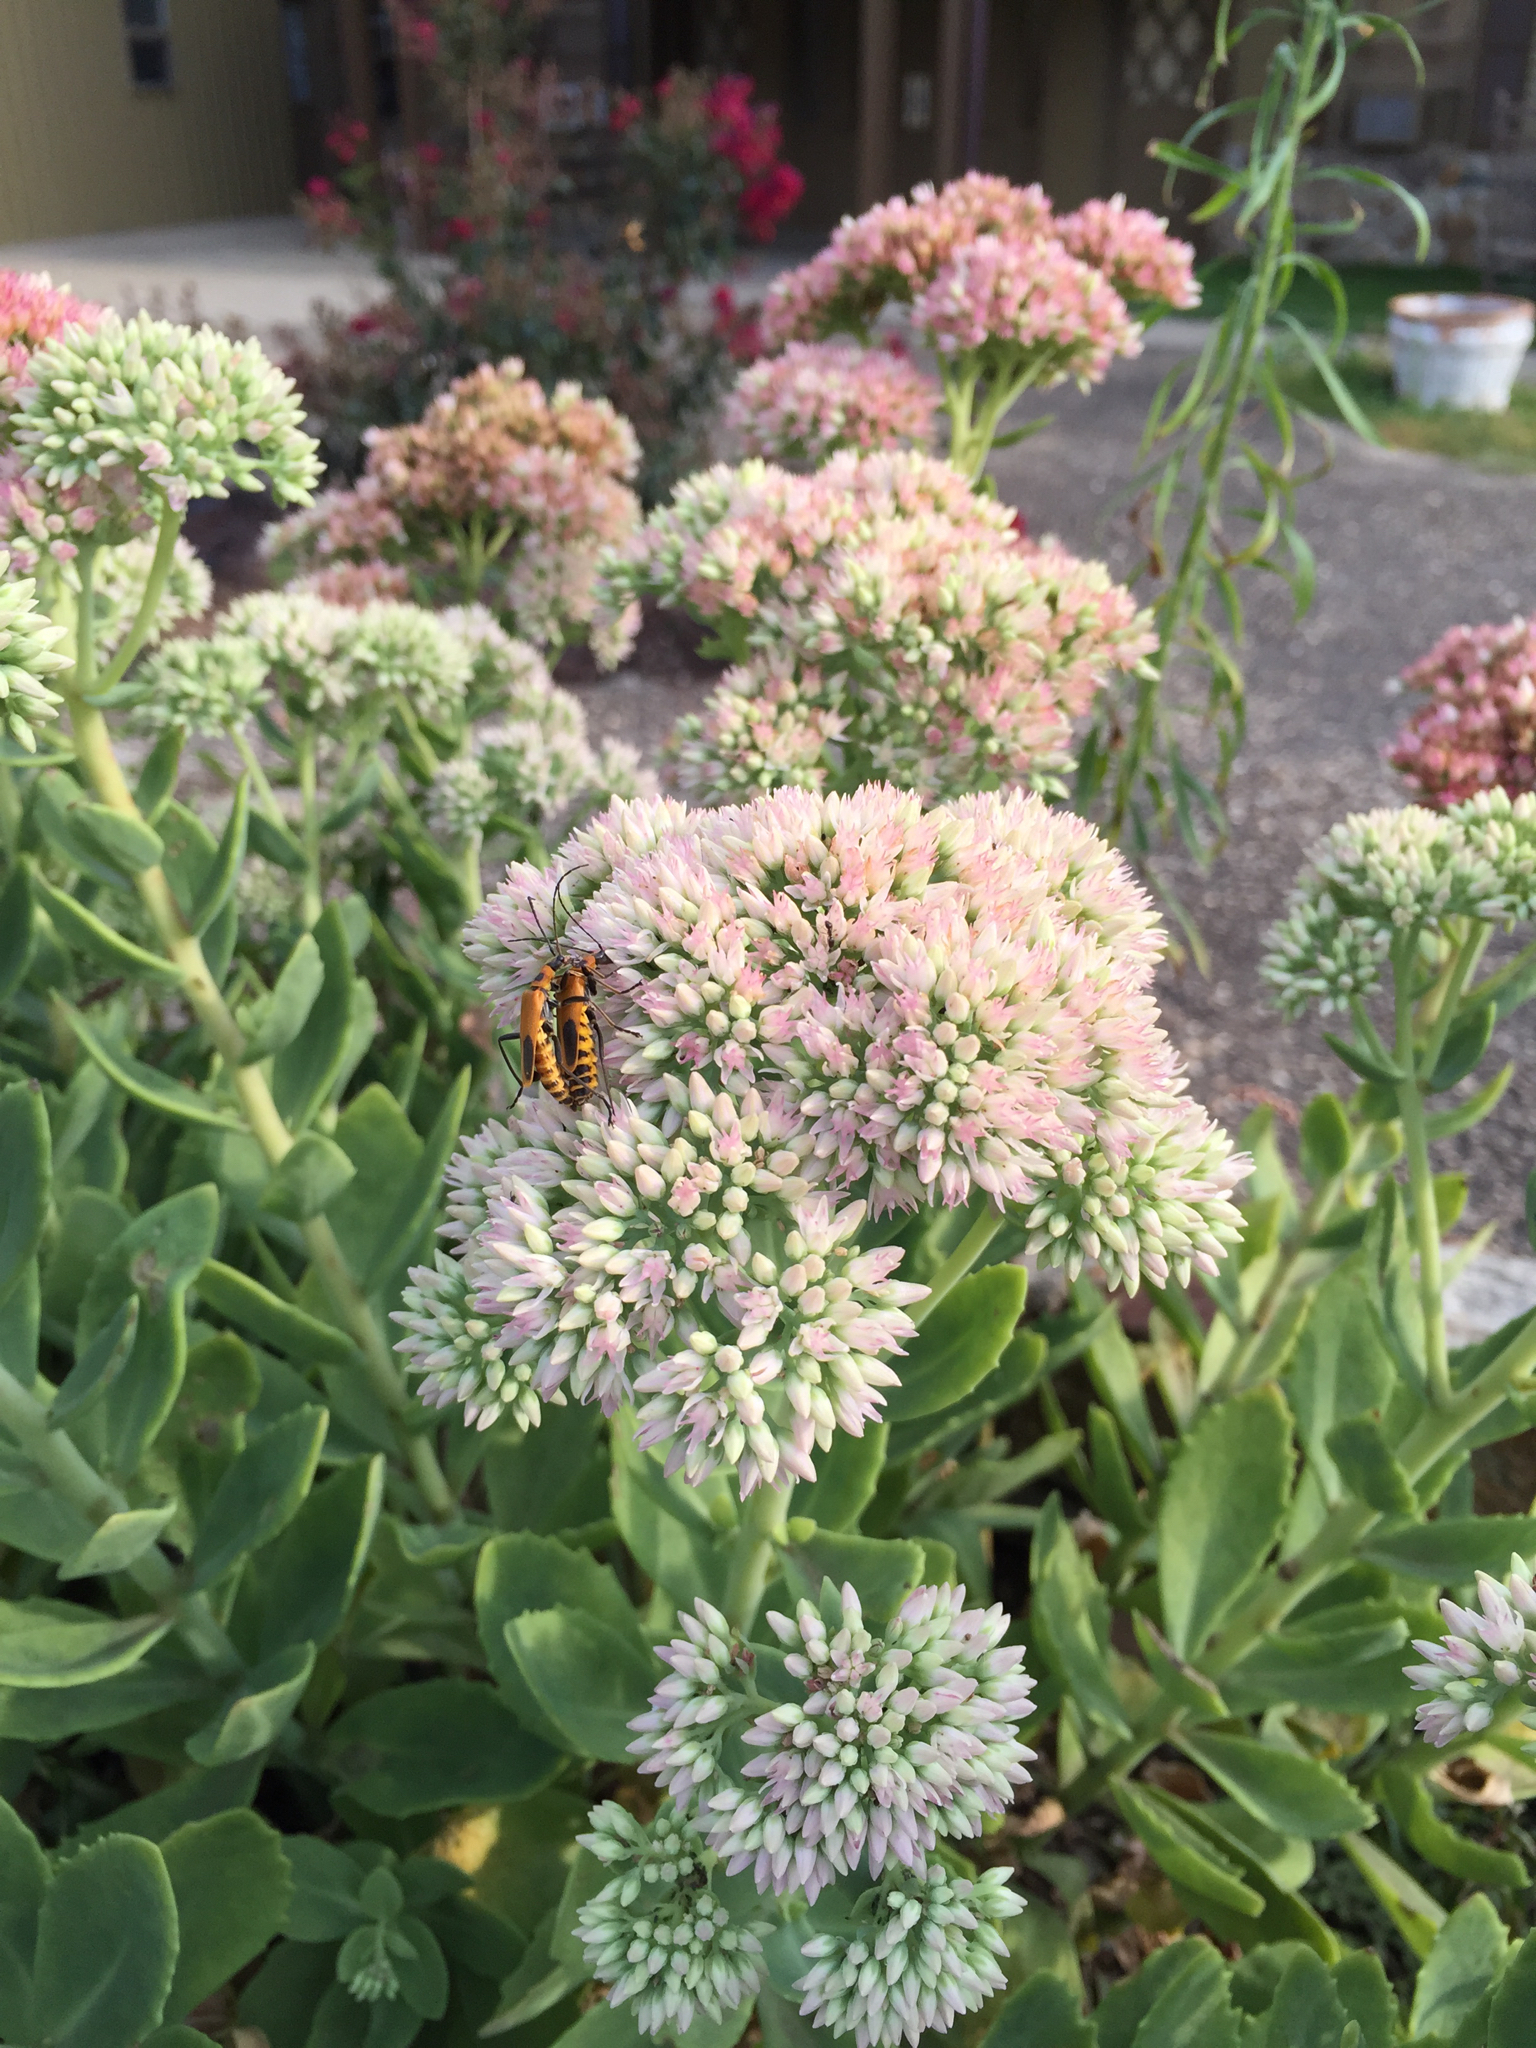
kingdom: Animalia
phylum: Arthropoda
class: Insecta
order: Coleoptera
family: Cantharidae
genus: Chauliognathus
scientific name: Chauliognathus pensylvanicus
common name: Goldenrod soldier beetle
